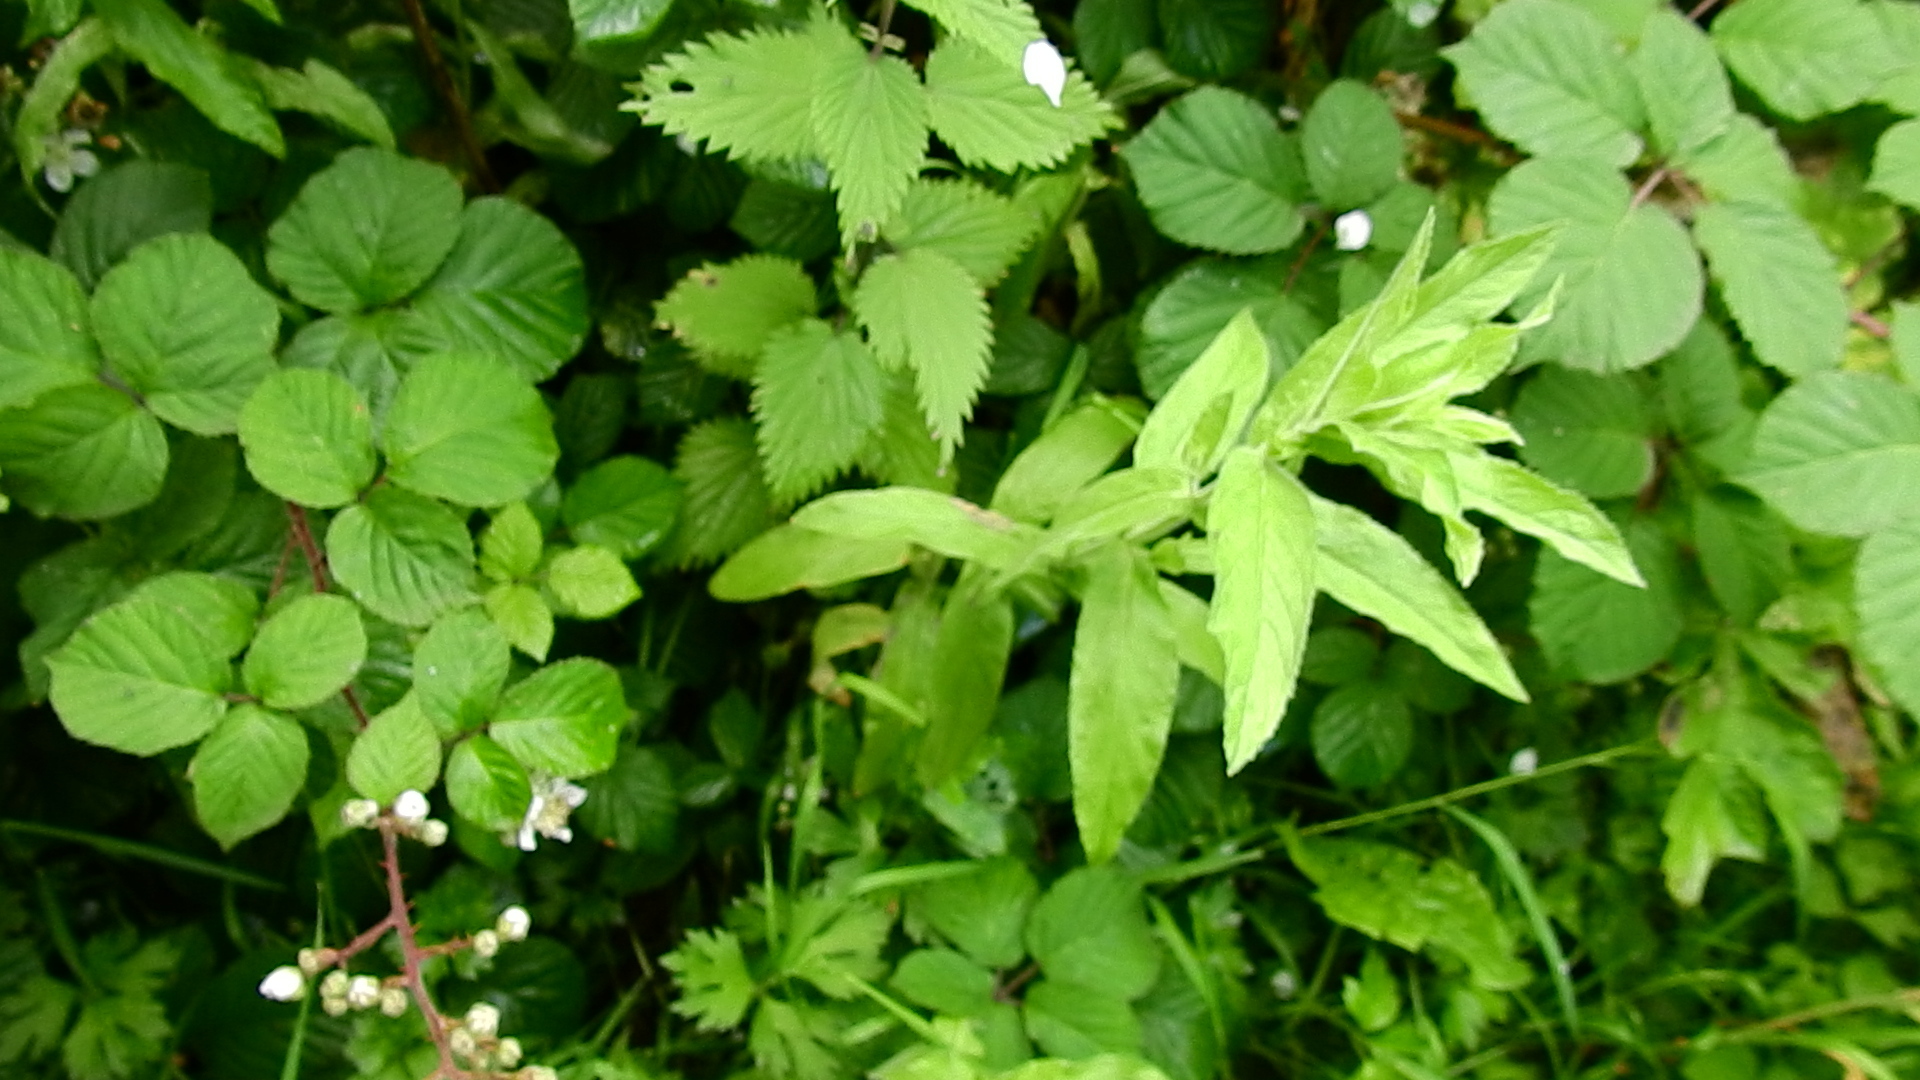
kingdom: Plantae
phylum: Tracheophyta
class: Magnoliopsida
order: Myrtales
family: Onagraceae
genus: Epilobium
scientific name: Epilobium hirsutum
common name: Great willowherb
